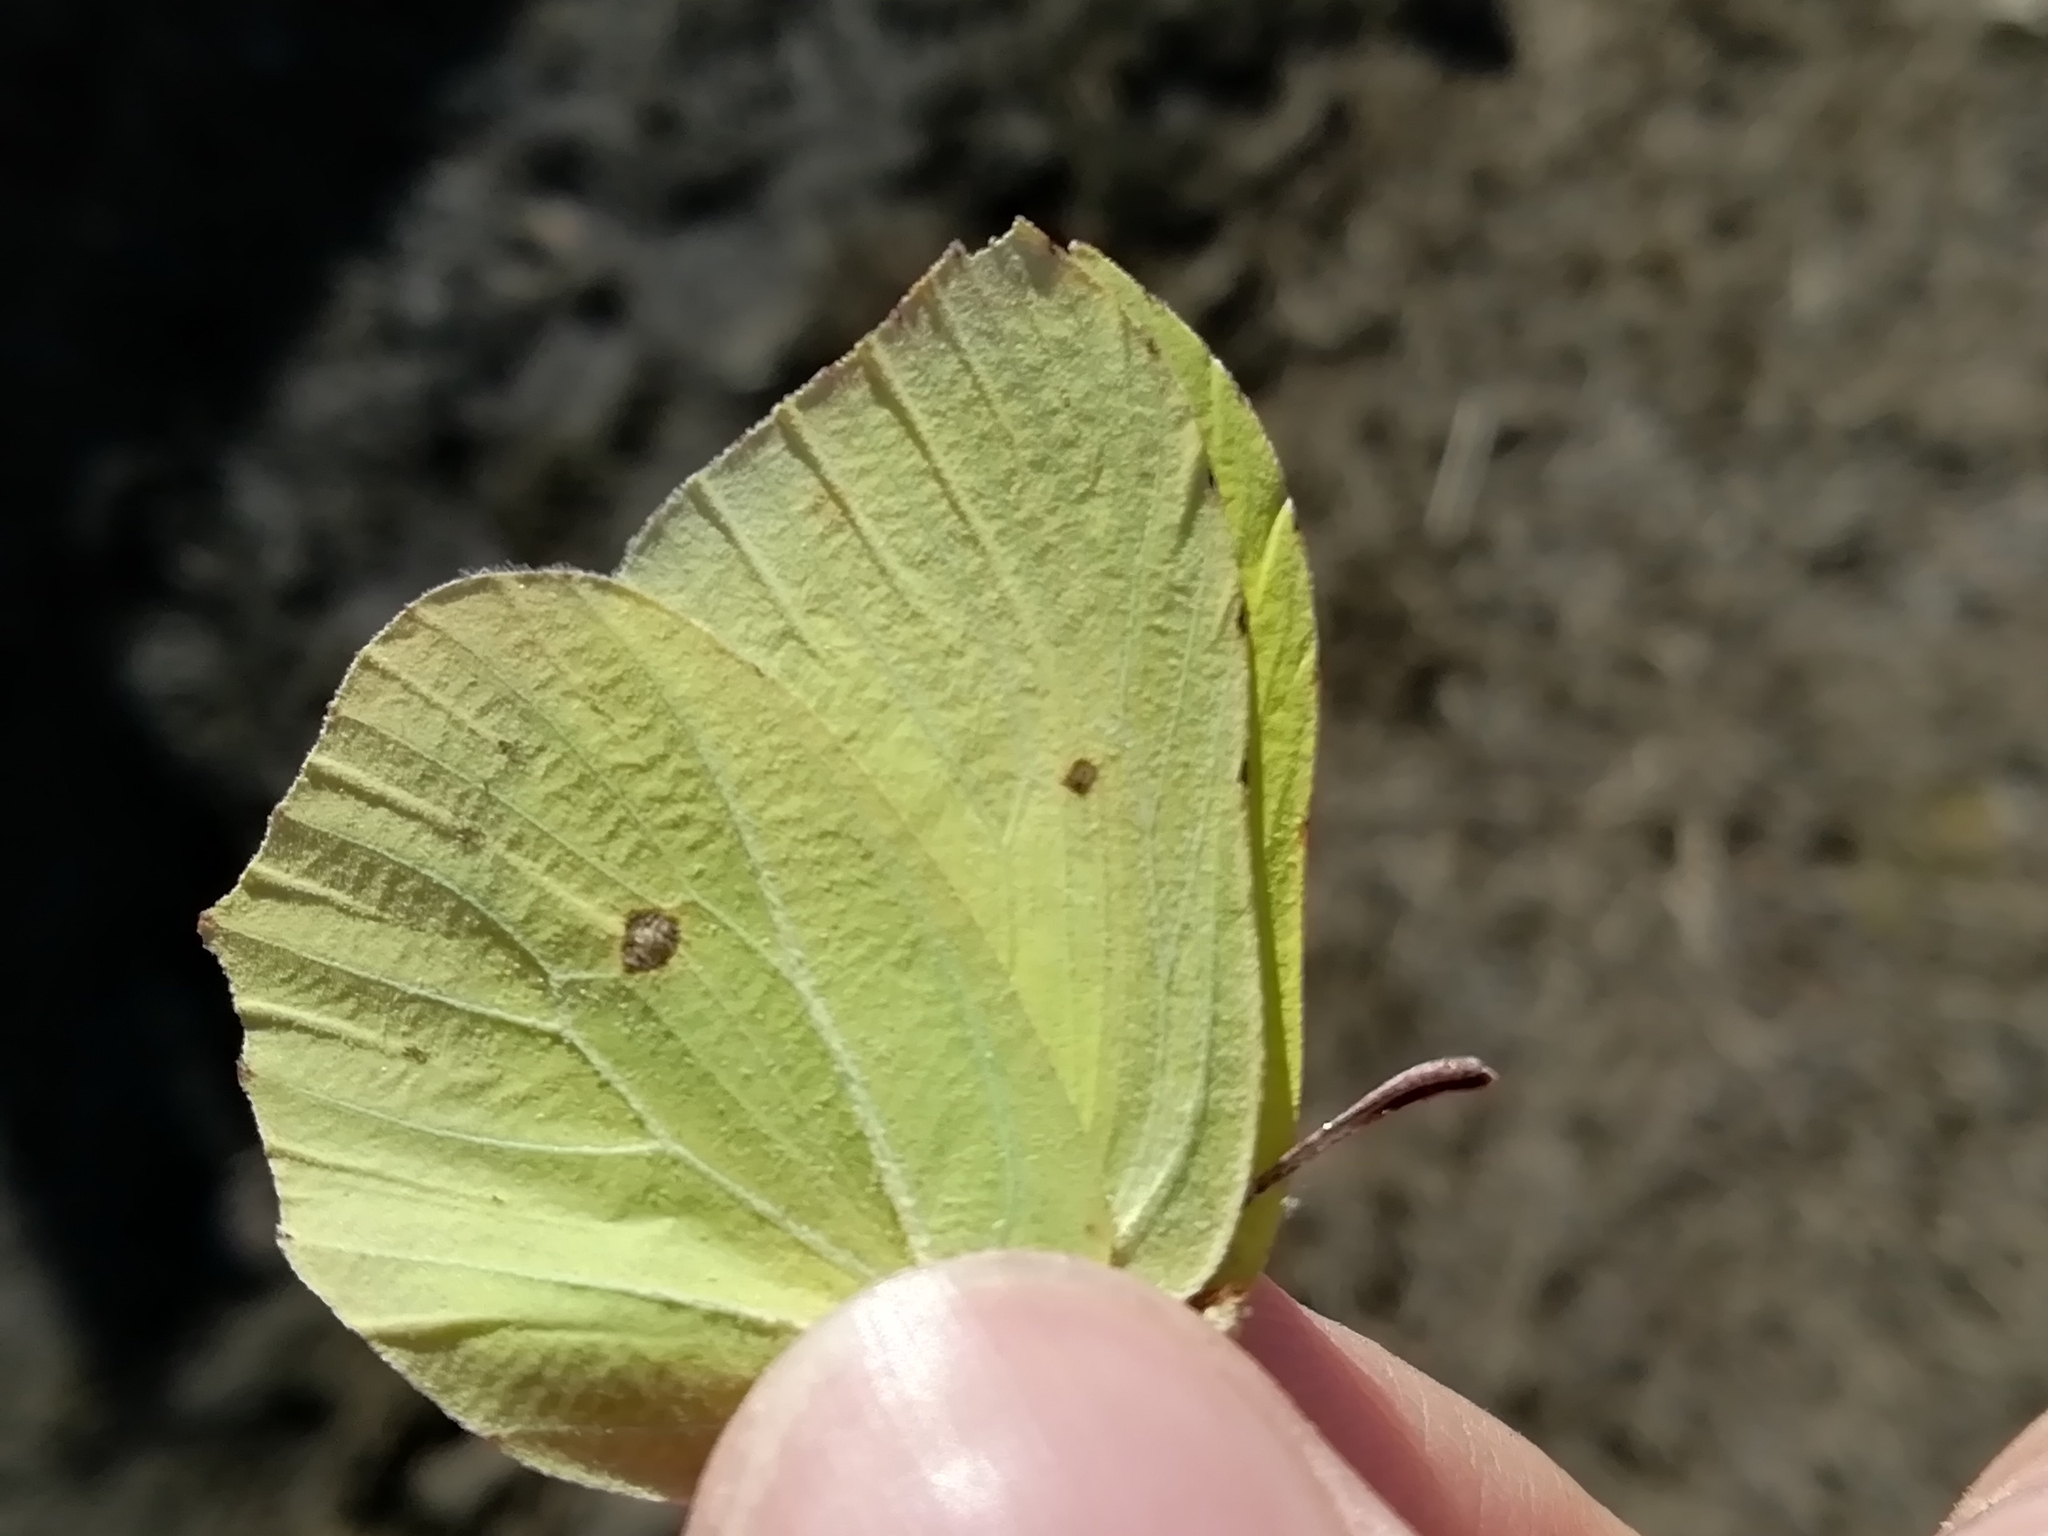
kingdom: Animalia
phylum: Arthropoda
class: Insecta
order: Lepidoptera
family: Pieridae
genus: Gonepteryx
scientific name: Gonepteryx rhamni
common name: Brimstone
